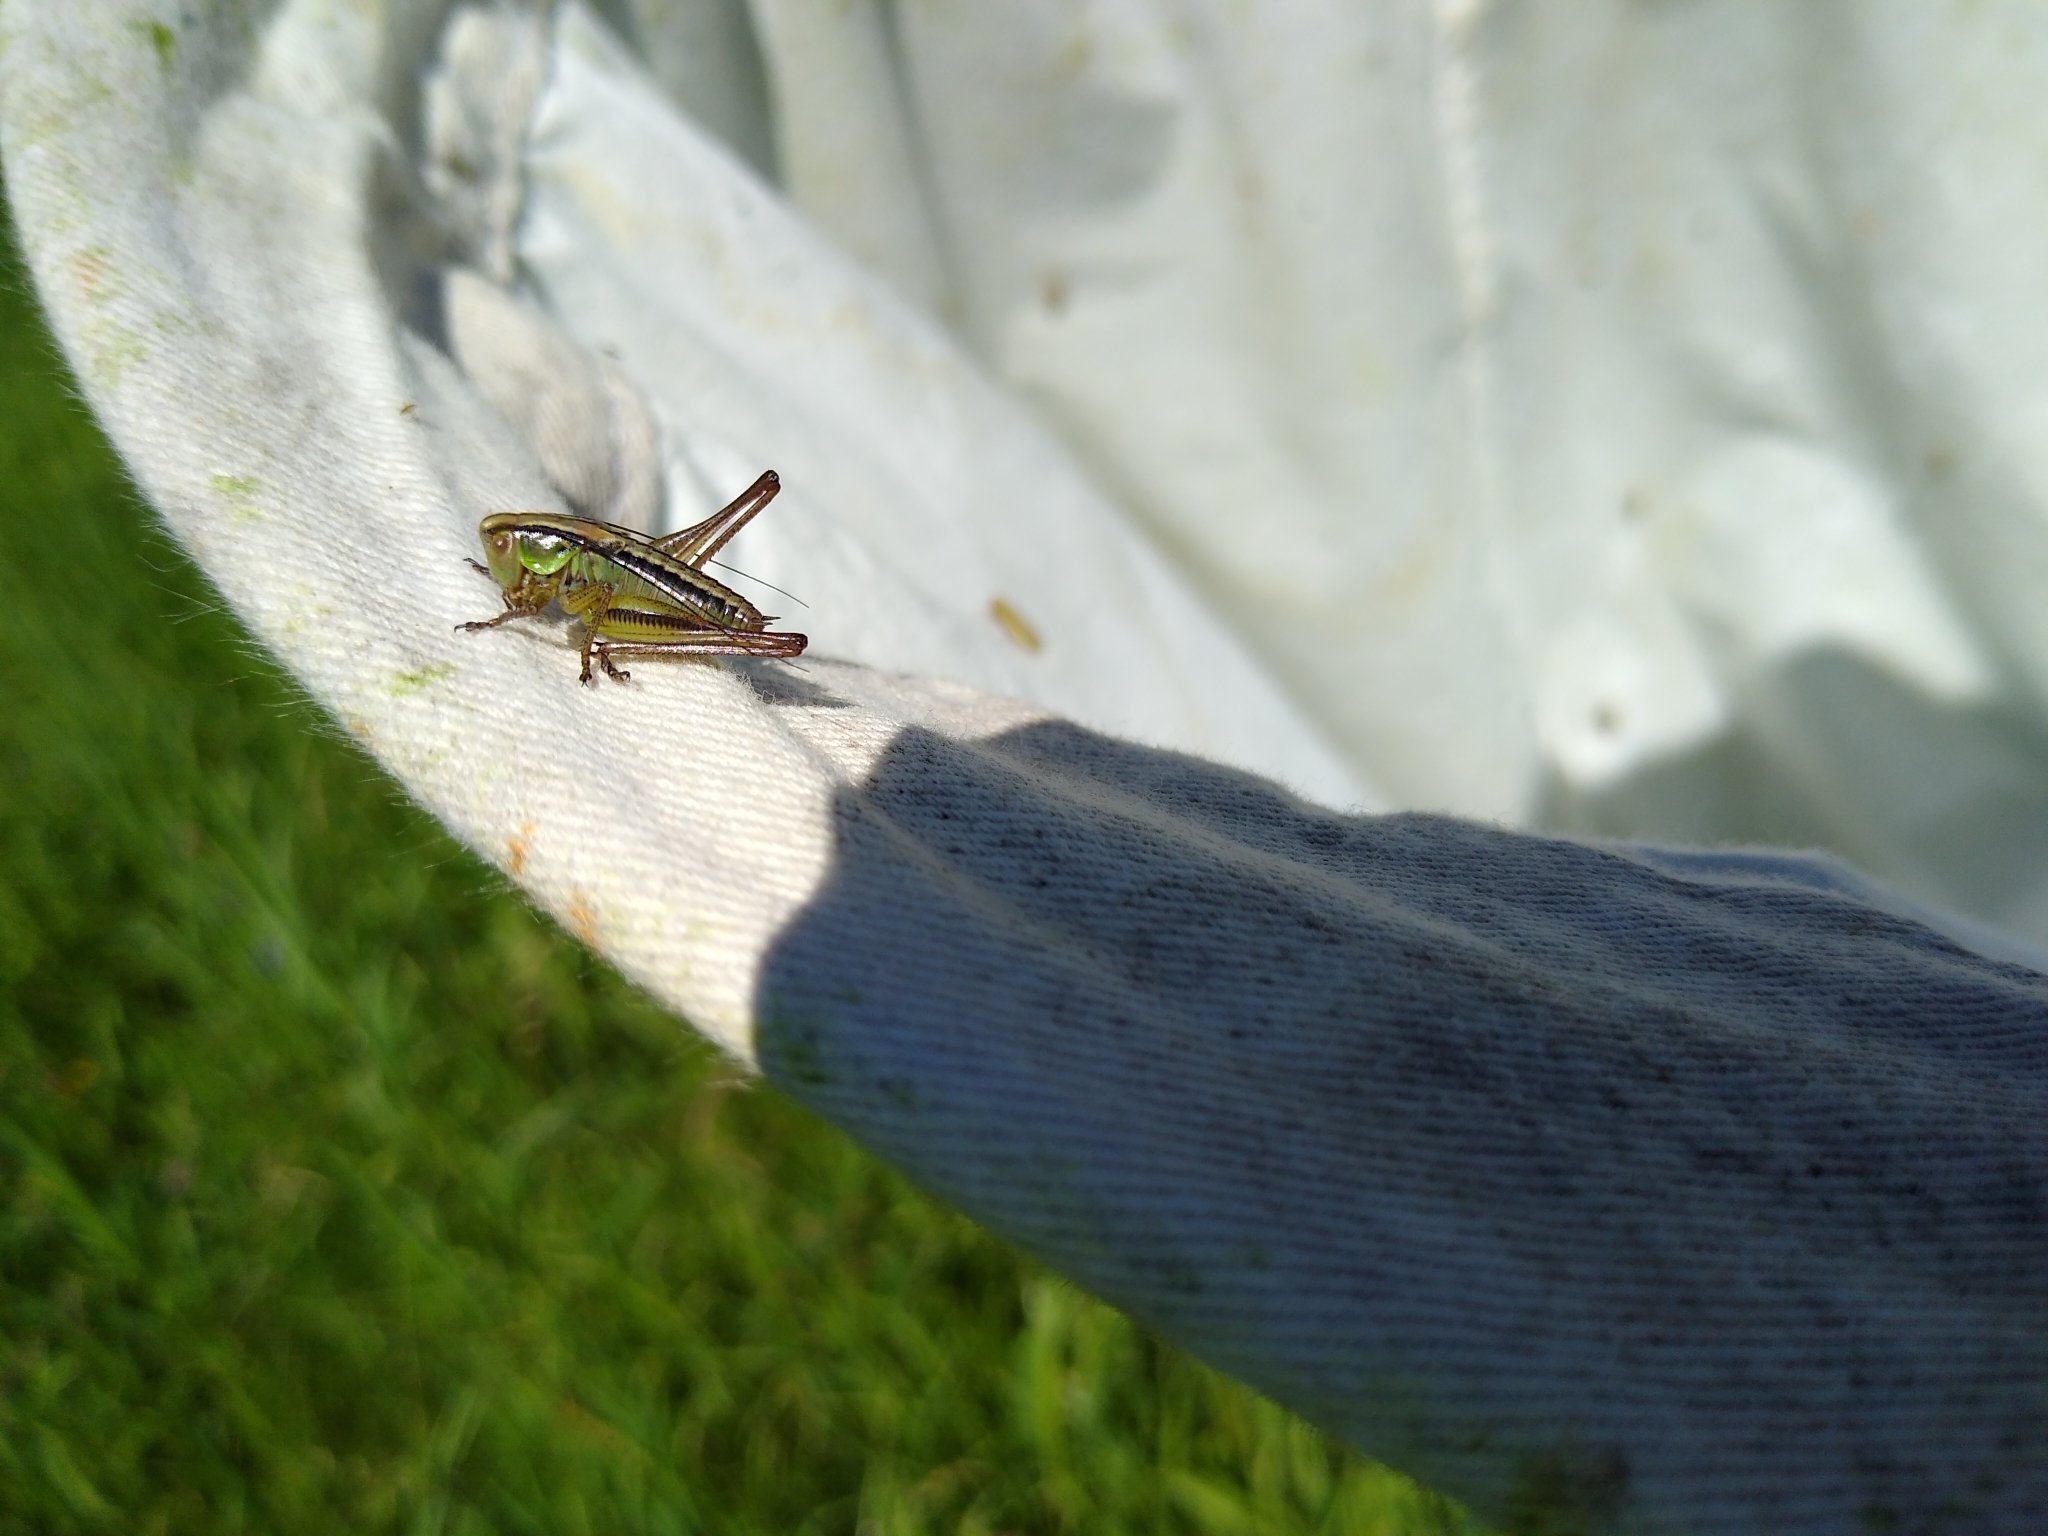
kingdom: Animalia
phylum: Arthropoda
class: Insecta
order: Orthoptera
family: Tettigoniidae
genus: Roeseliana
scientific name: Roeseliana roeselii
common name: Roesel's bush cricket
